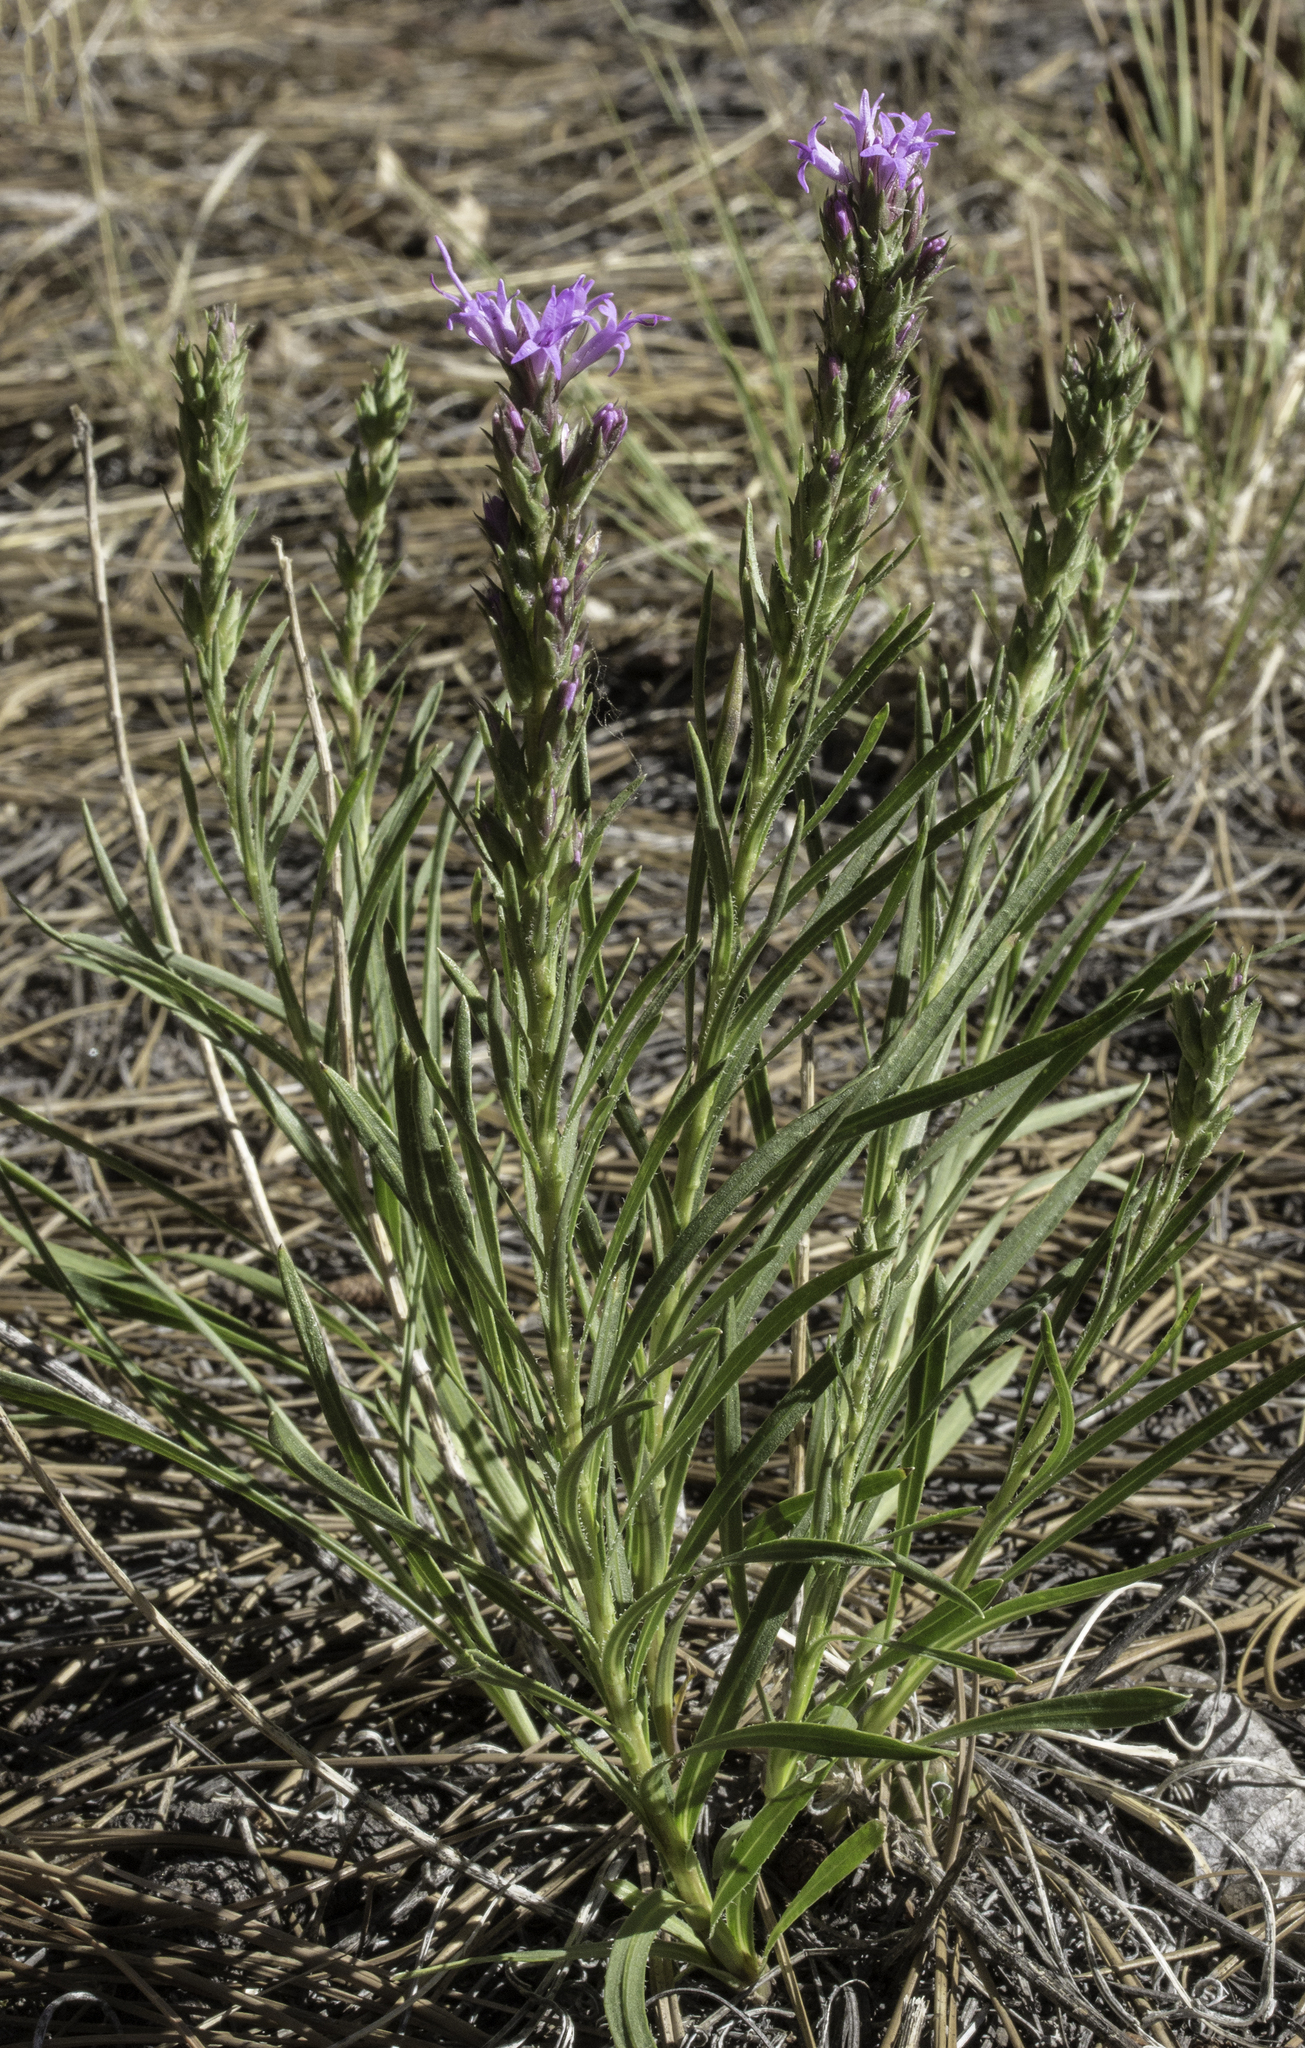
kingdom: Plantae
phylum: Tracheophyta
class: Magnoliopsida
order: Asterales
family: Asteraceae
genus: Liatris
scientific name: Liatris punctata
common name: Dotted gayfeather
